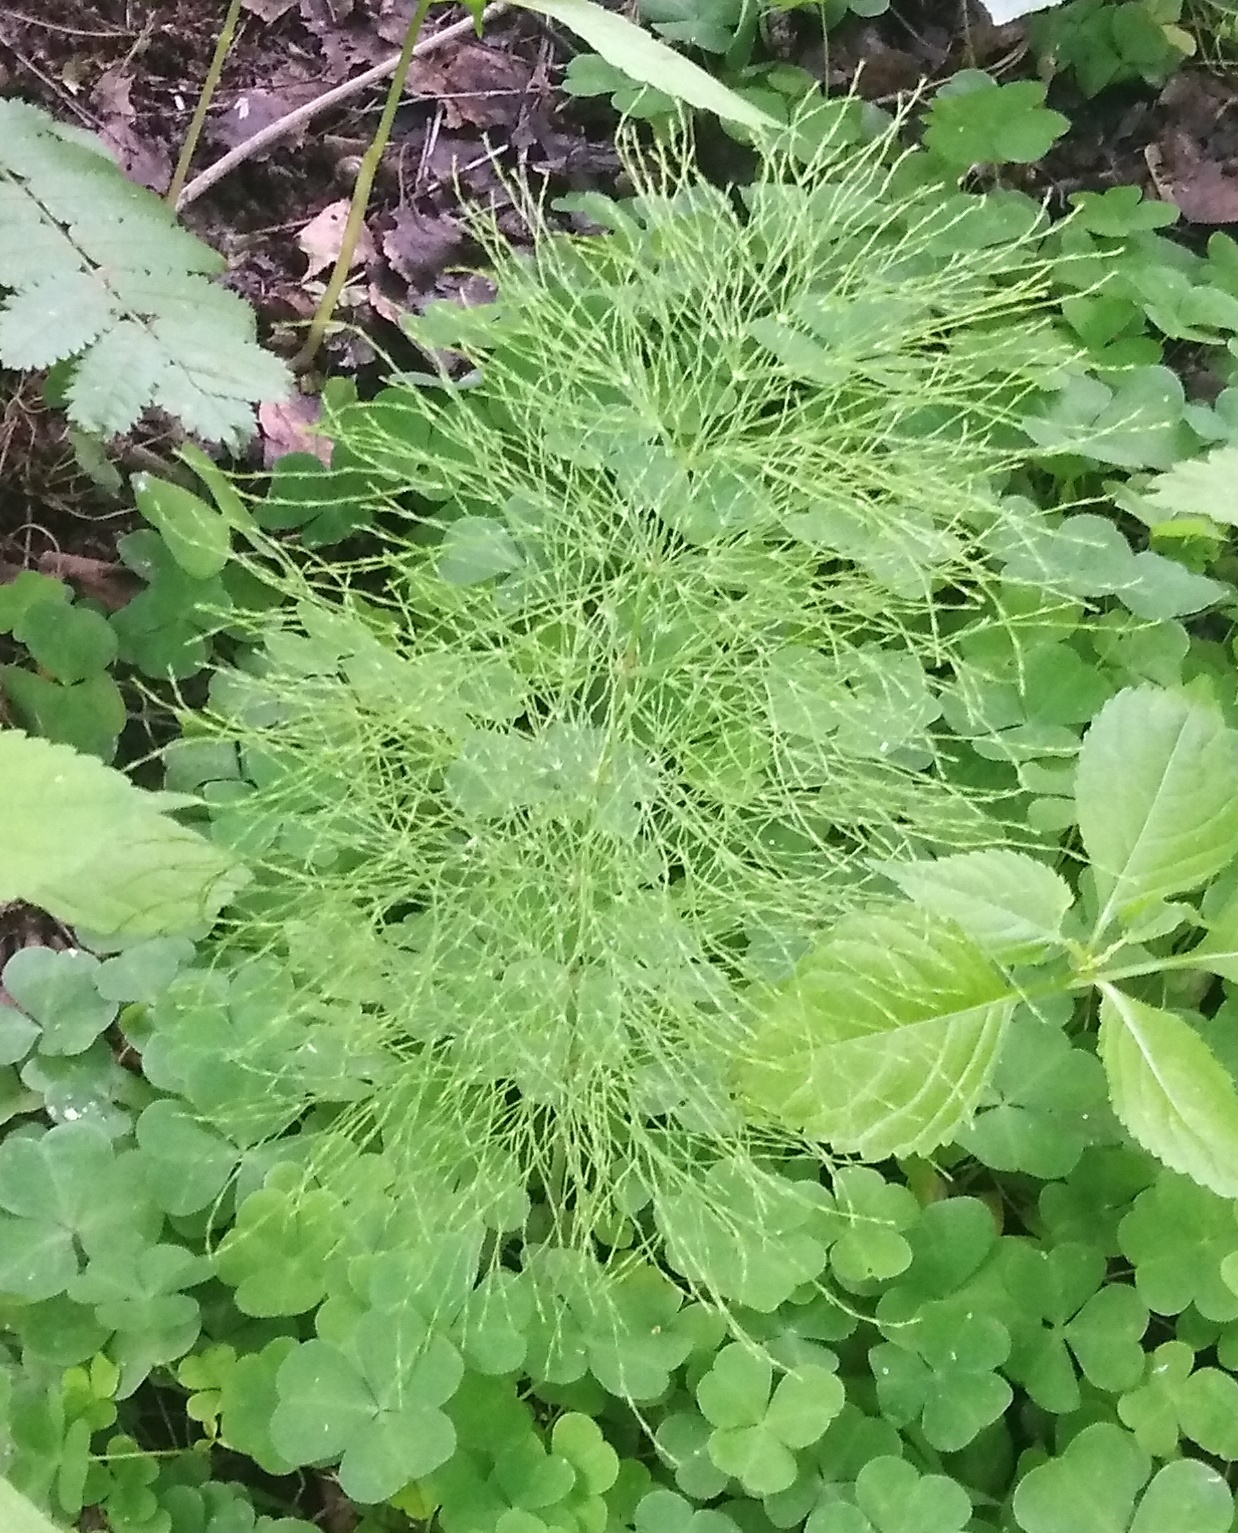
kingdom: Plantae
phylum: Tracheophyta
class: Polypodiopsida
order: Equisetales
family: Equisetaceae
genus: Equisetum
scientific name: Equisetum sylvaticum
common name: Wood horsetail
